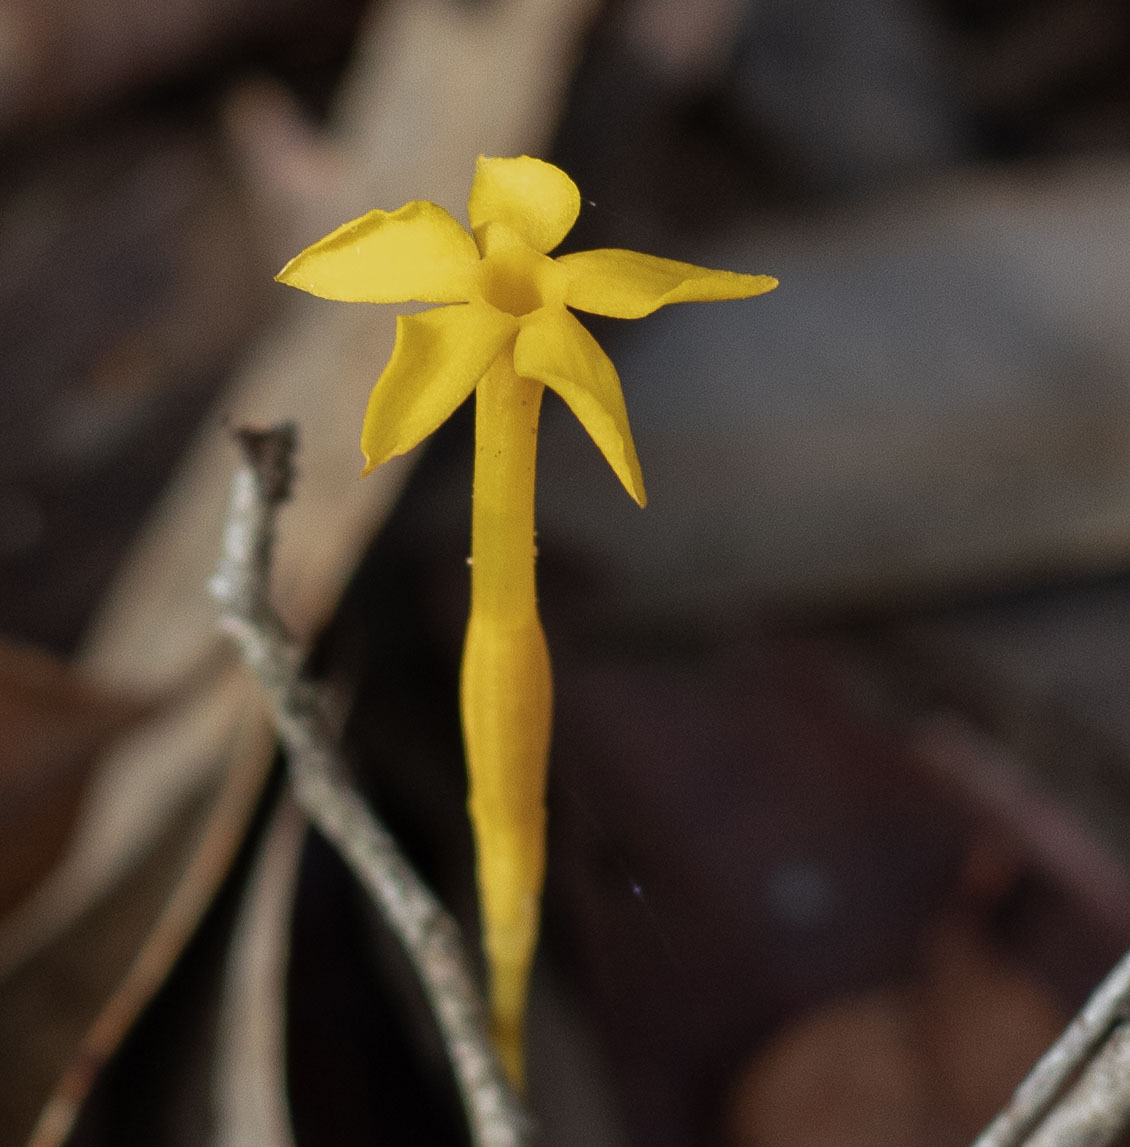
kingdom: Plantae
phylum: Tracheophyta
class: Magnoliopsida
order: Gentianales
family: Gentianaceae
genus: Voyria
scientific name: Voyria aphylla
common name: Leafless ghost plant
